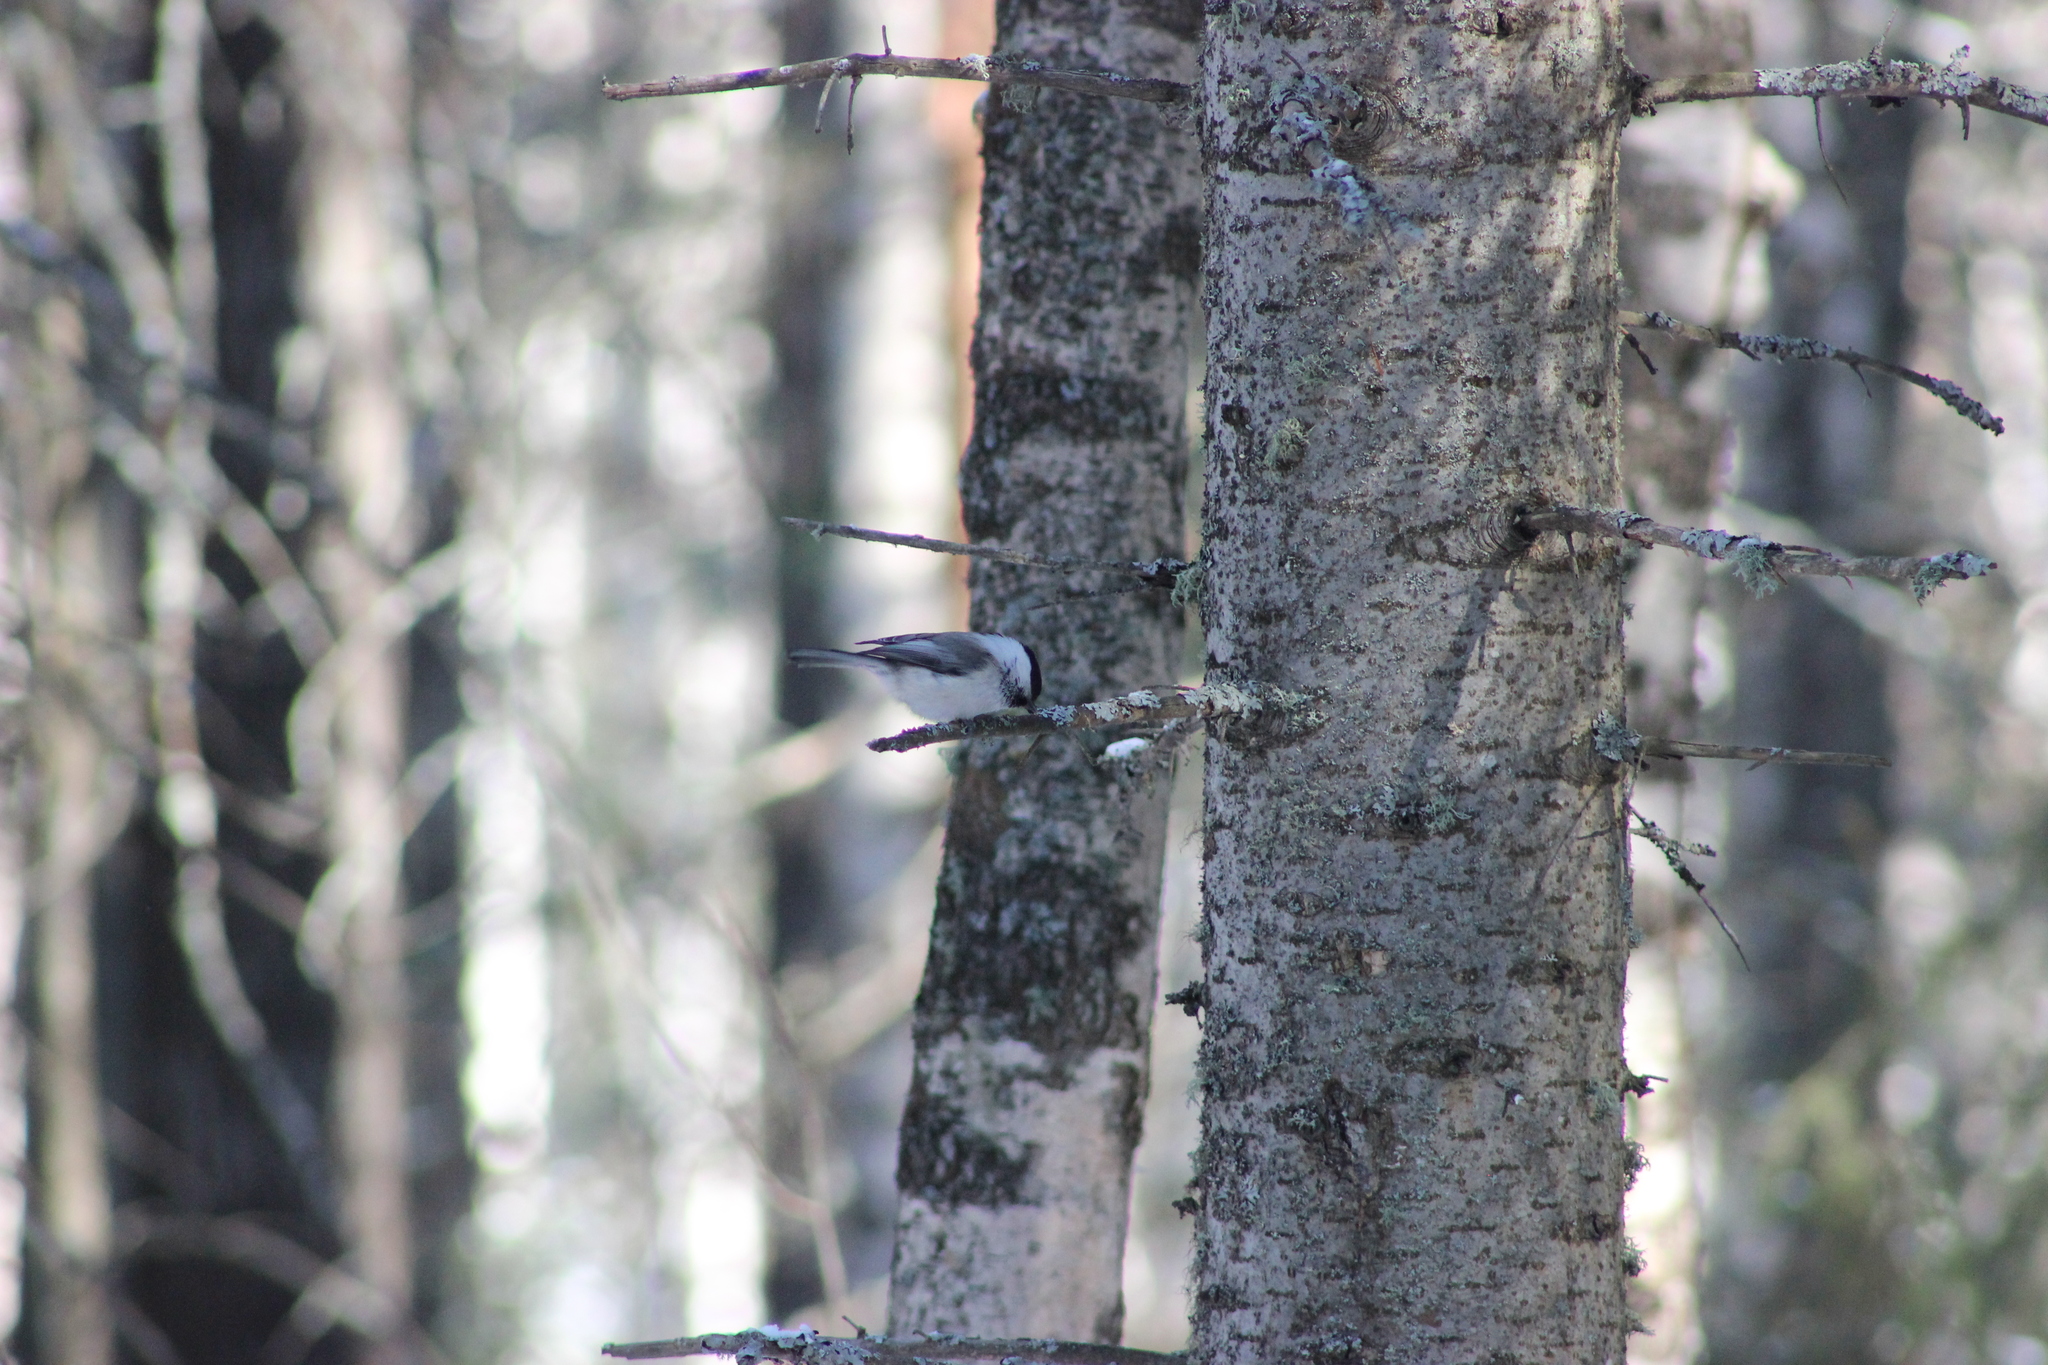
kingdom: Animalia
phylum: Chordata
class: Aves
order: Passeriformes
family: Paridae
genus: Poecile
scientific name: Poecile montanus
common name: Willow tit
